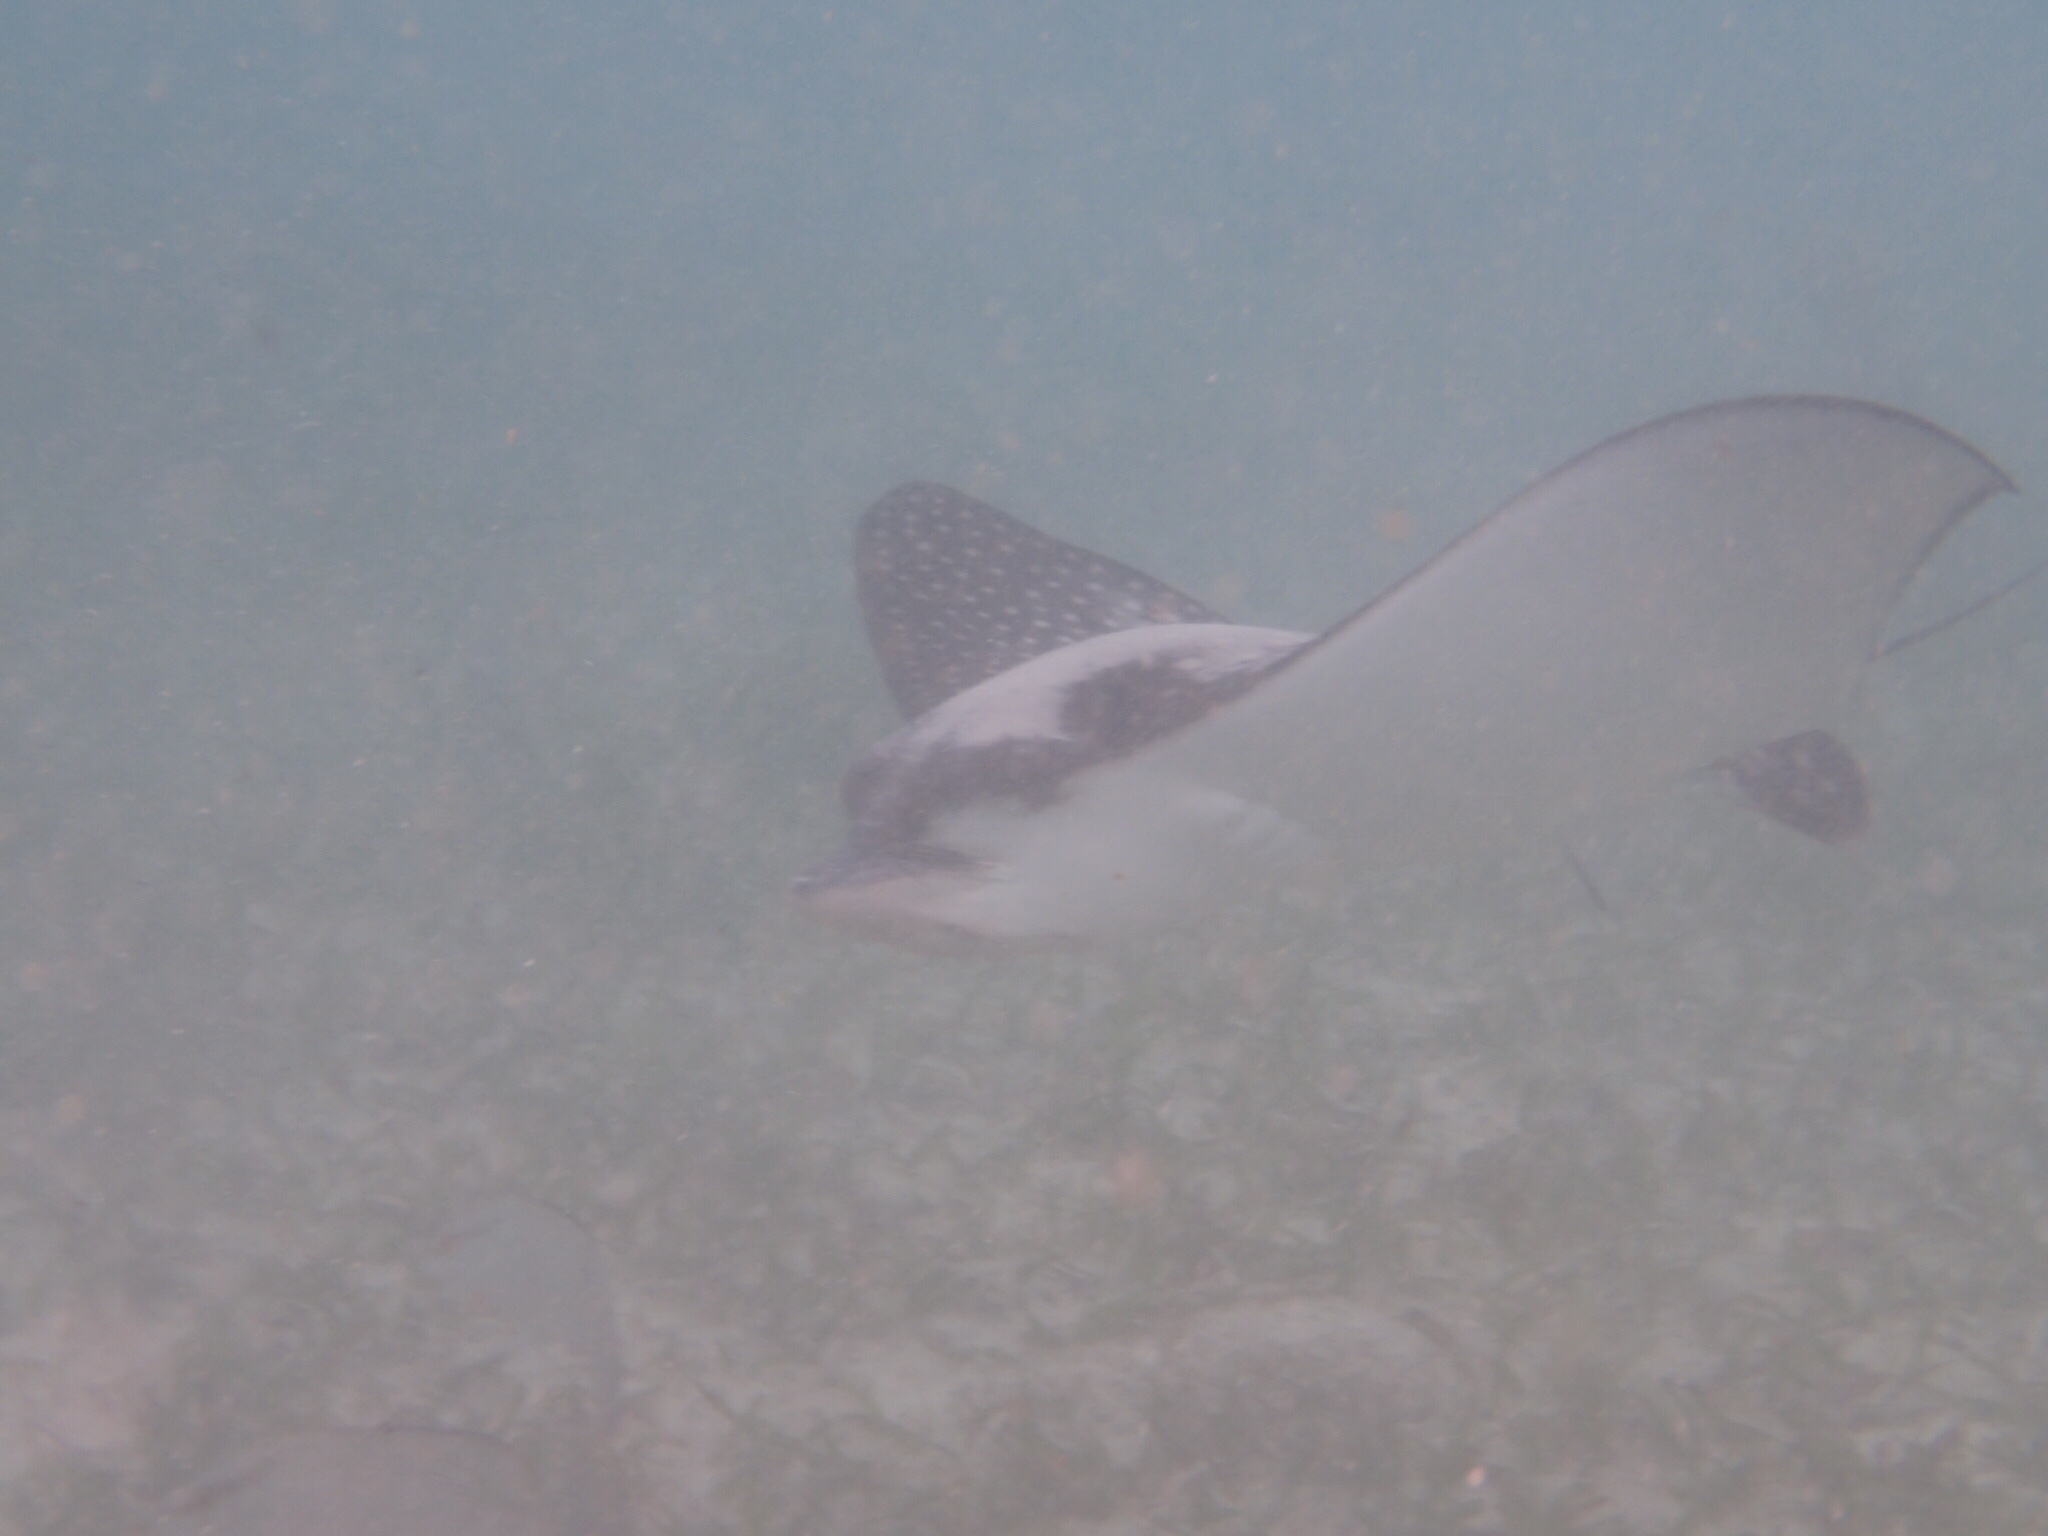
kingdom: Animalia
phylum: Chordata
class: Elasmobranchii
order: Myliobatiformes
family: Myliobatidae
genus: Aetobatus
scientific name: Aetobatus narinari
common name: Spotted eagle ray
